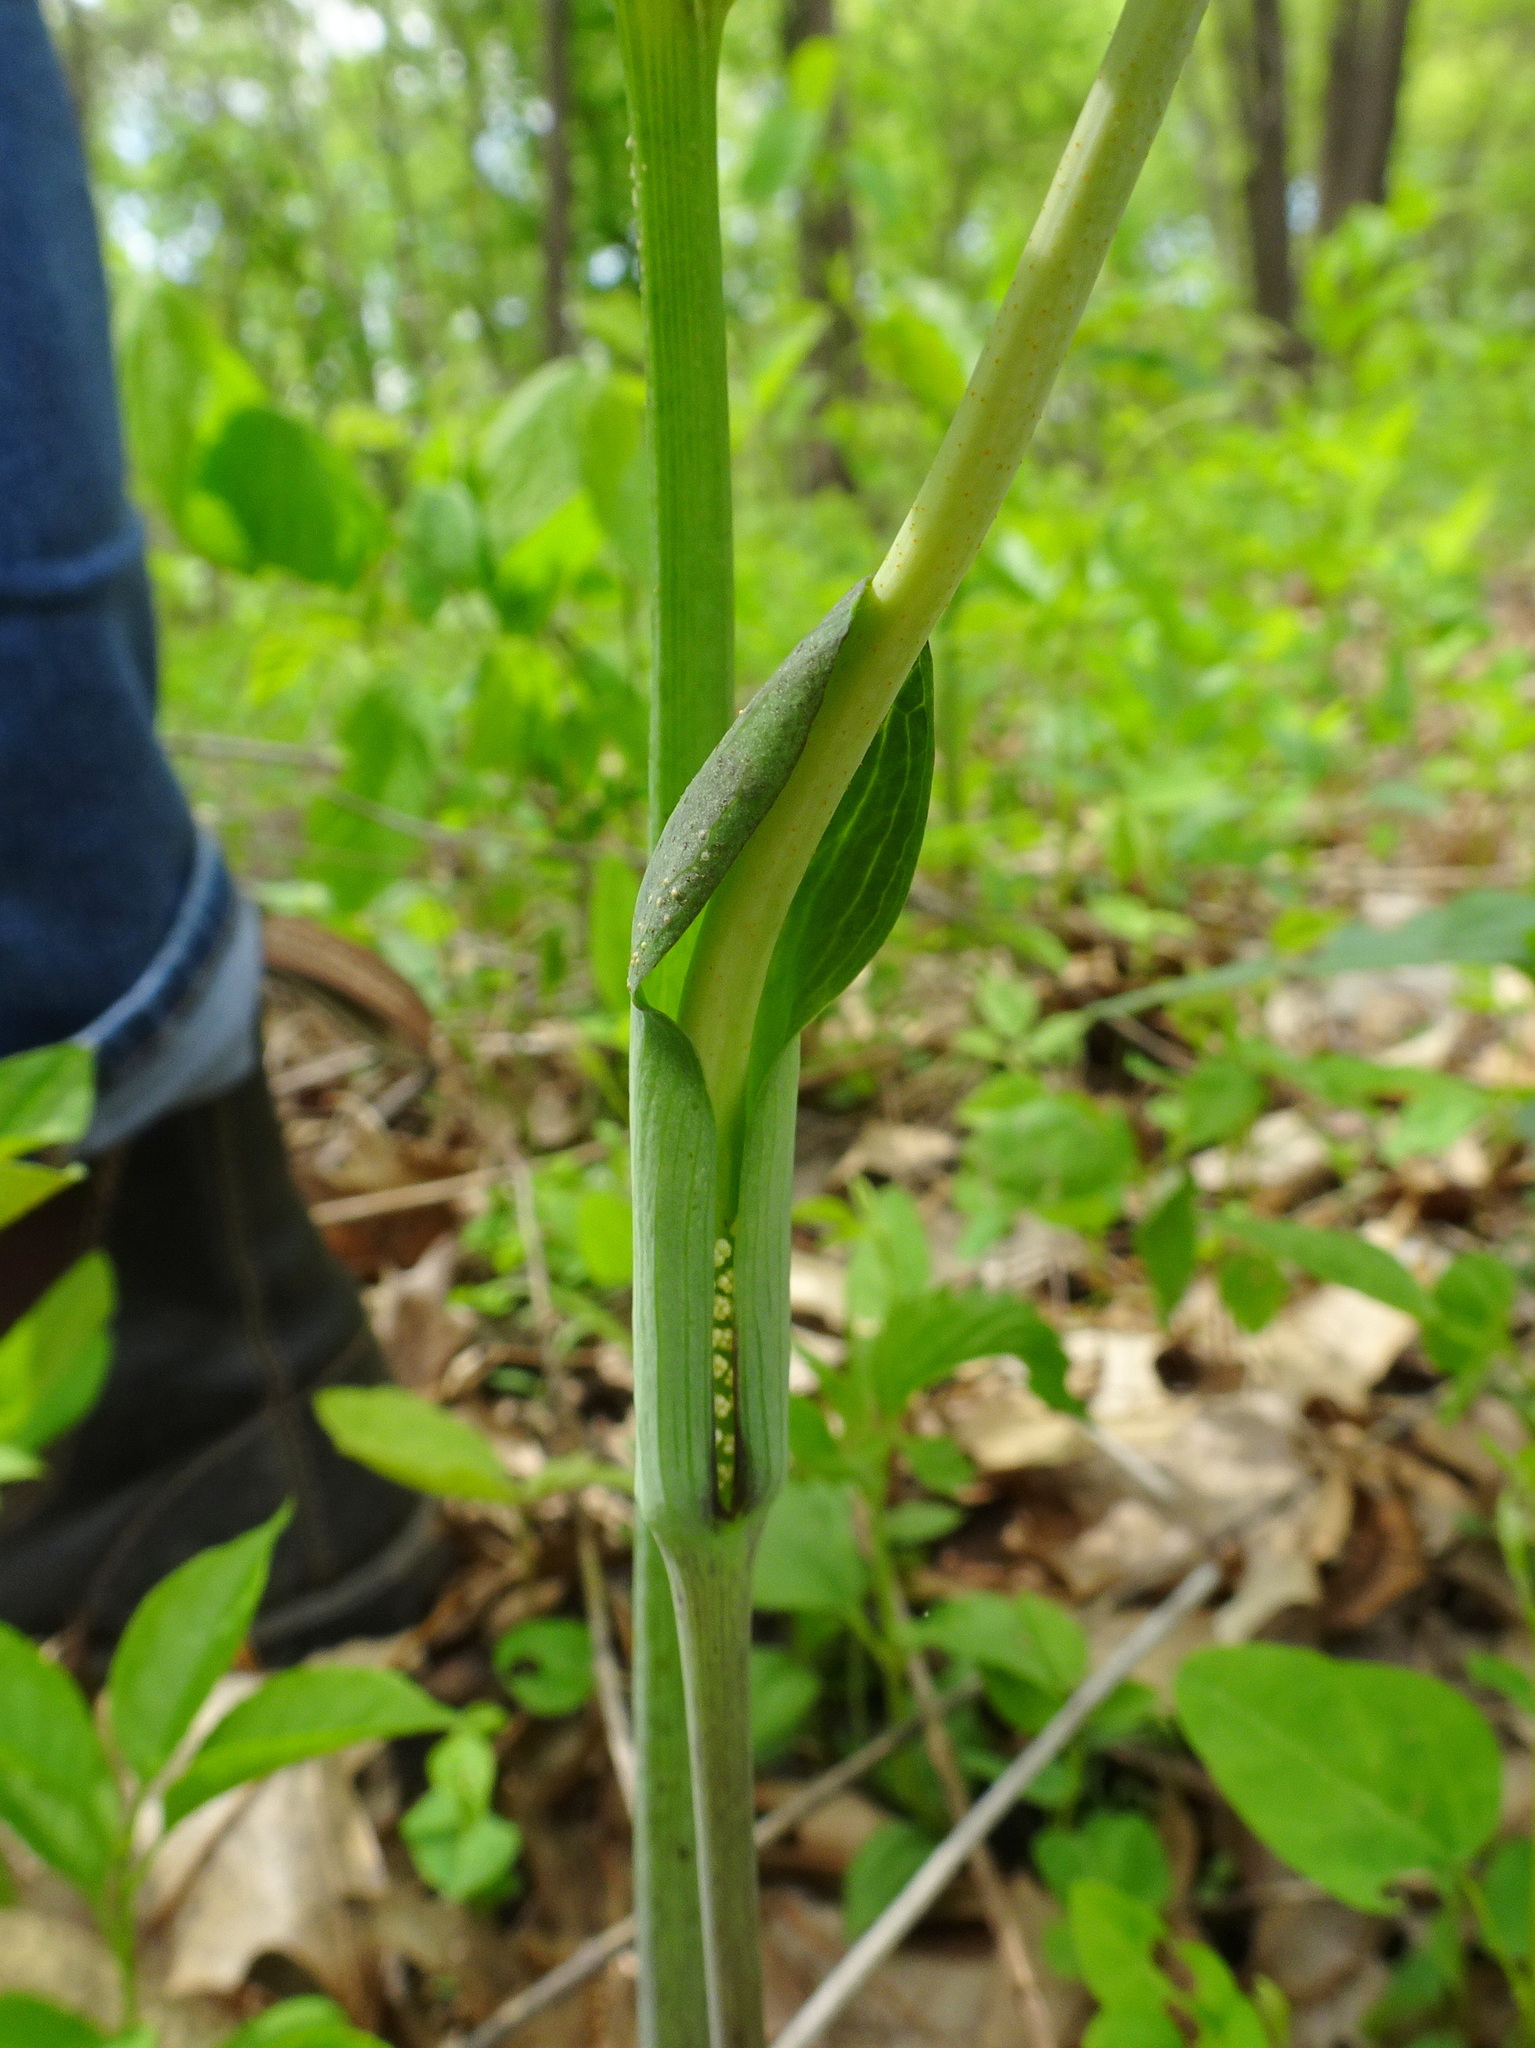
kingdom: Plantae
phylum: Tracheophyta
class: Liliopsida
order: Alismatales
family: Araceae
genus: Arisaema
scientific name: Arisaema dracontium
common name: Dragon-arum
